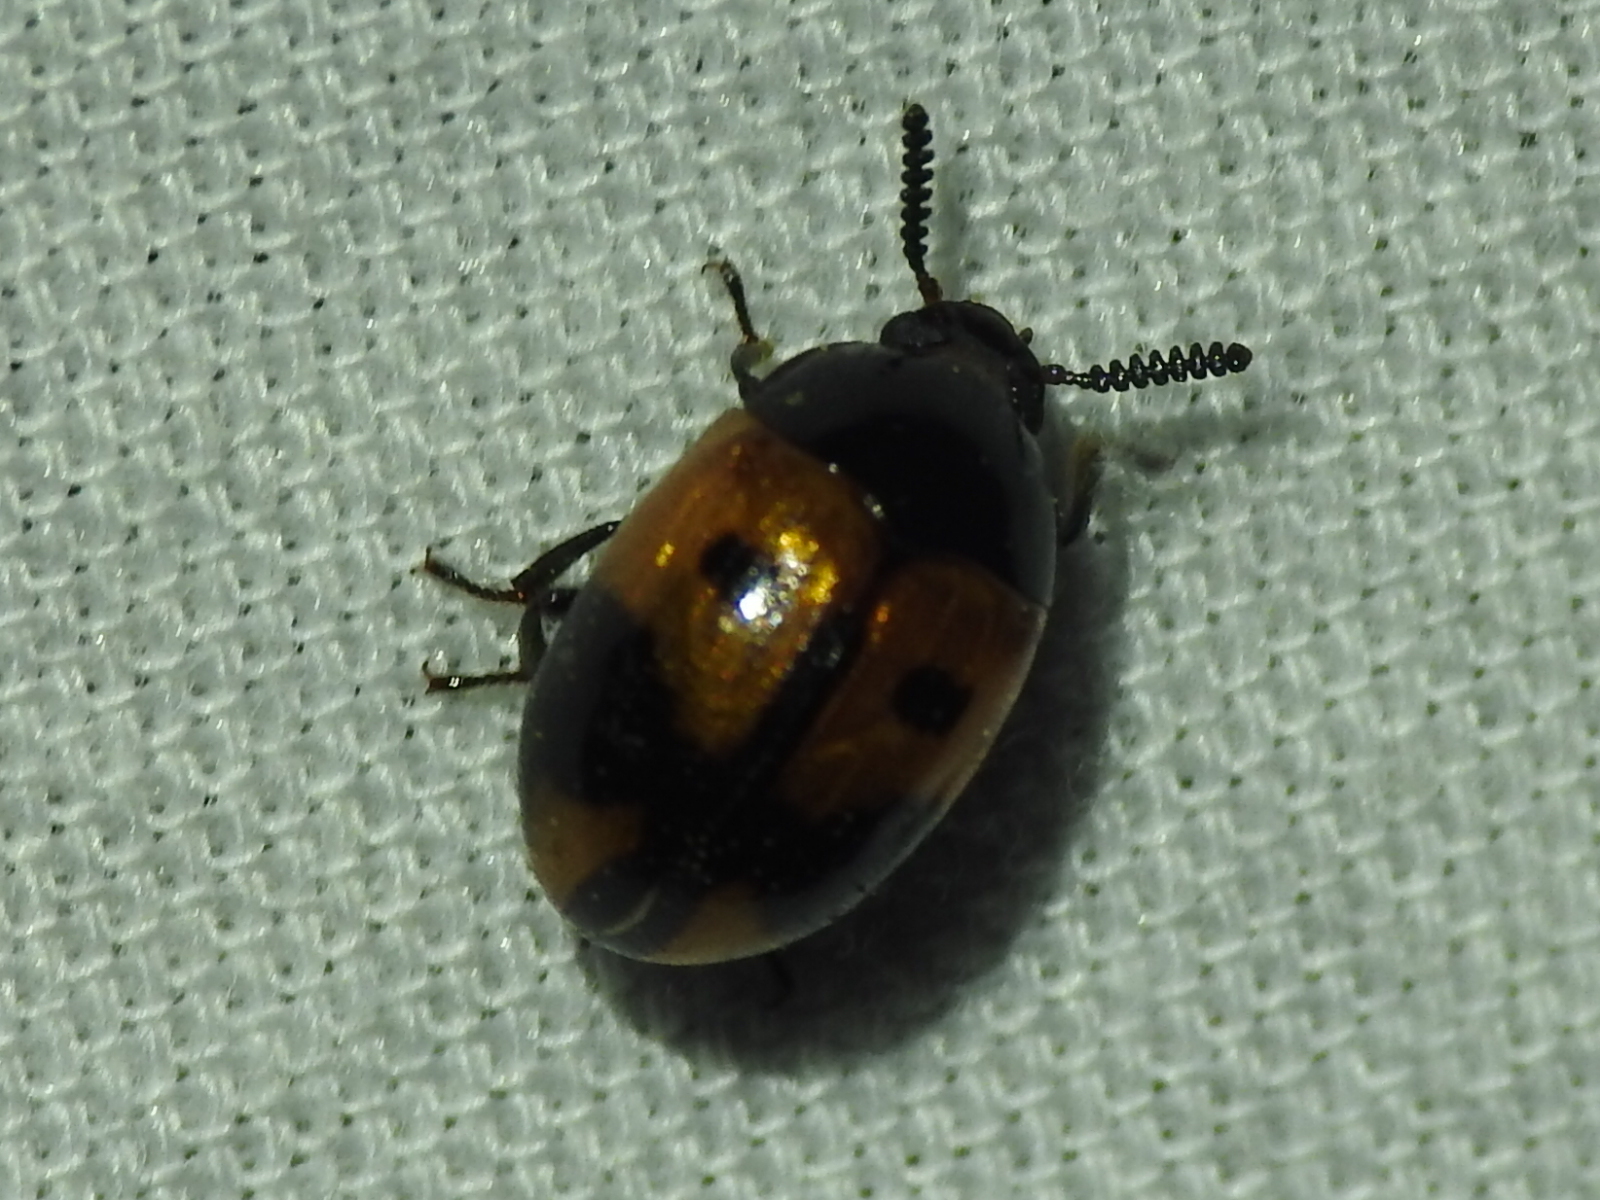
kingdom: Animalia
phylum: Arthropoda
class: Insecta
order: Coleoptera
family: Tenebrionidae
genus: Diaperis
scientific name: Diaperis maculata
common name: Darkling beetle
